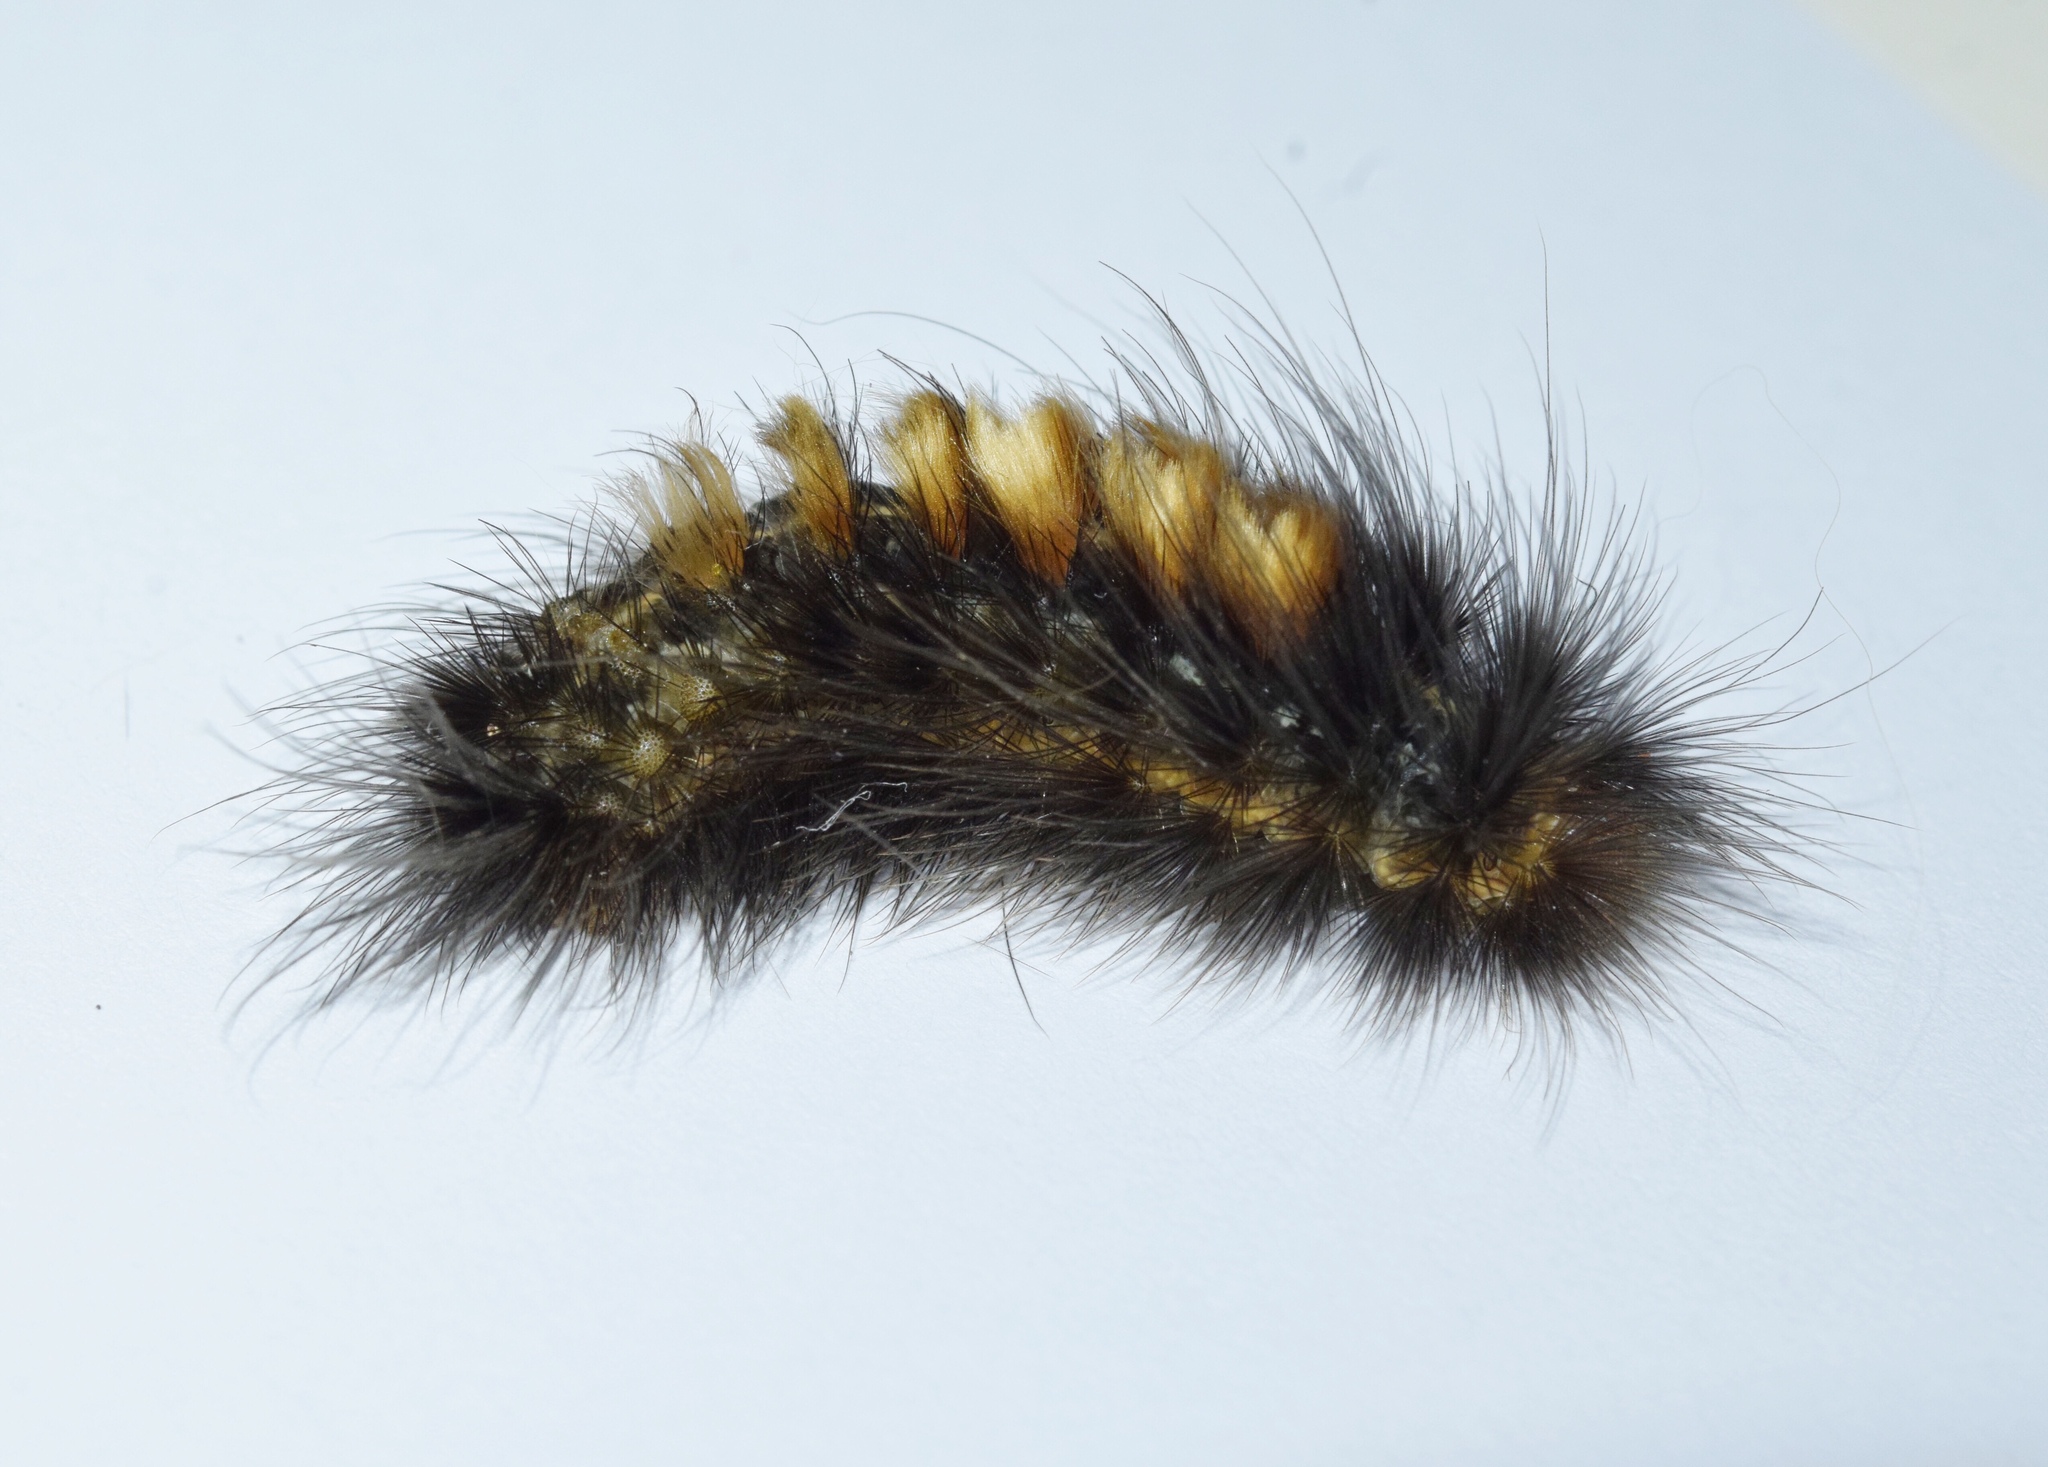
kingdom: Animalia
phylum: Arthropoda
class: Insecta
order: Lepidoptera
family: Erebidae
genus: Aroa
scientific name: Aroa discalis
